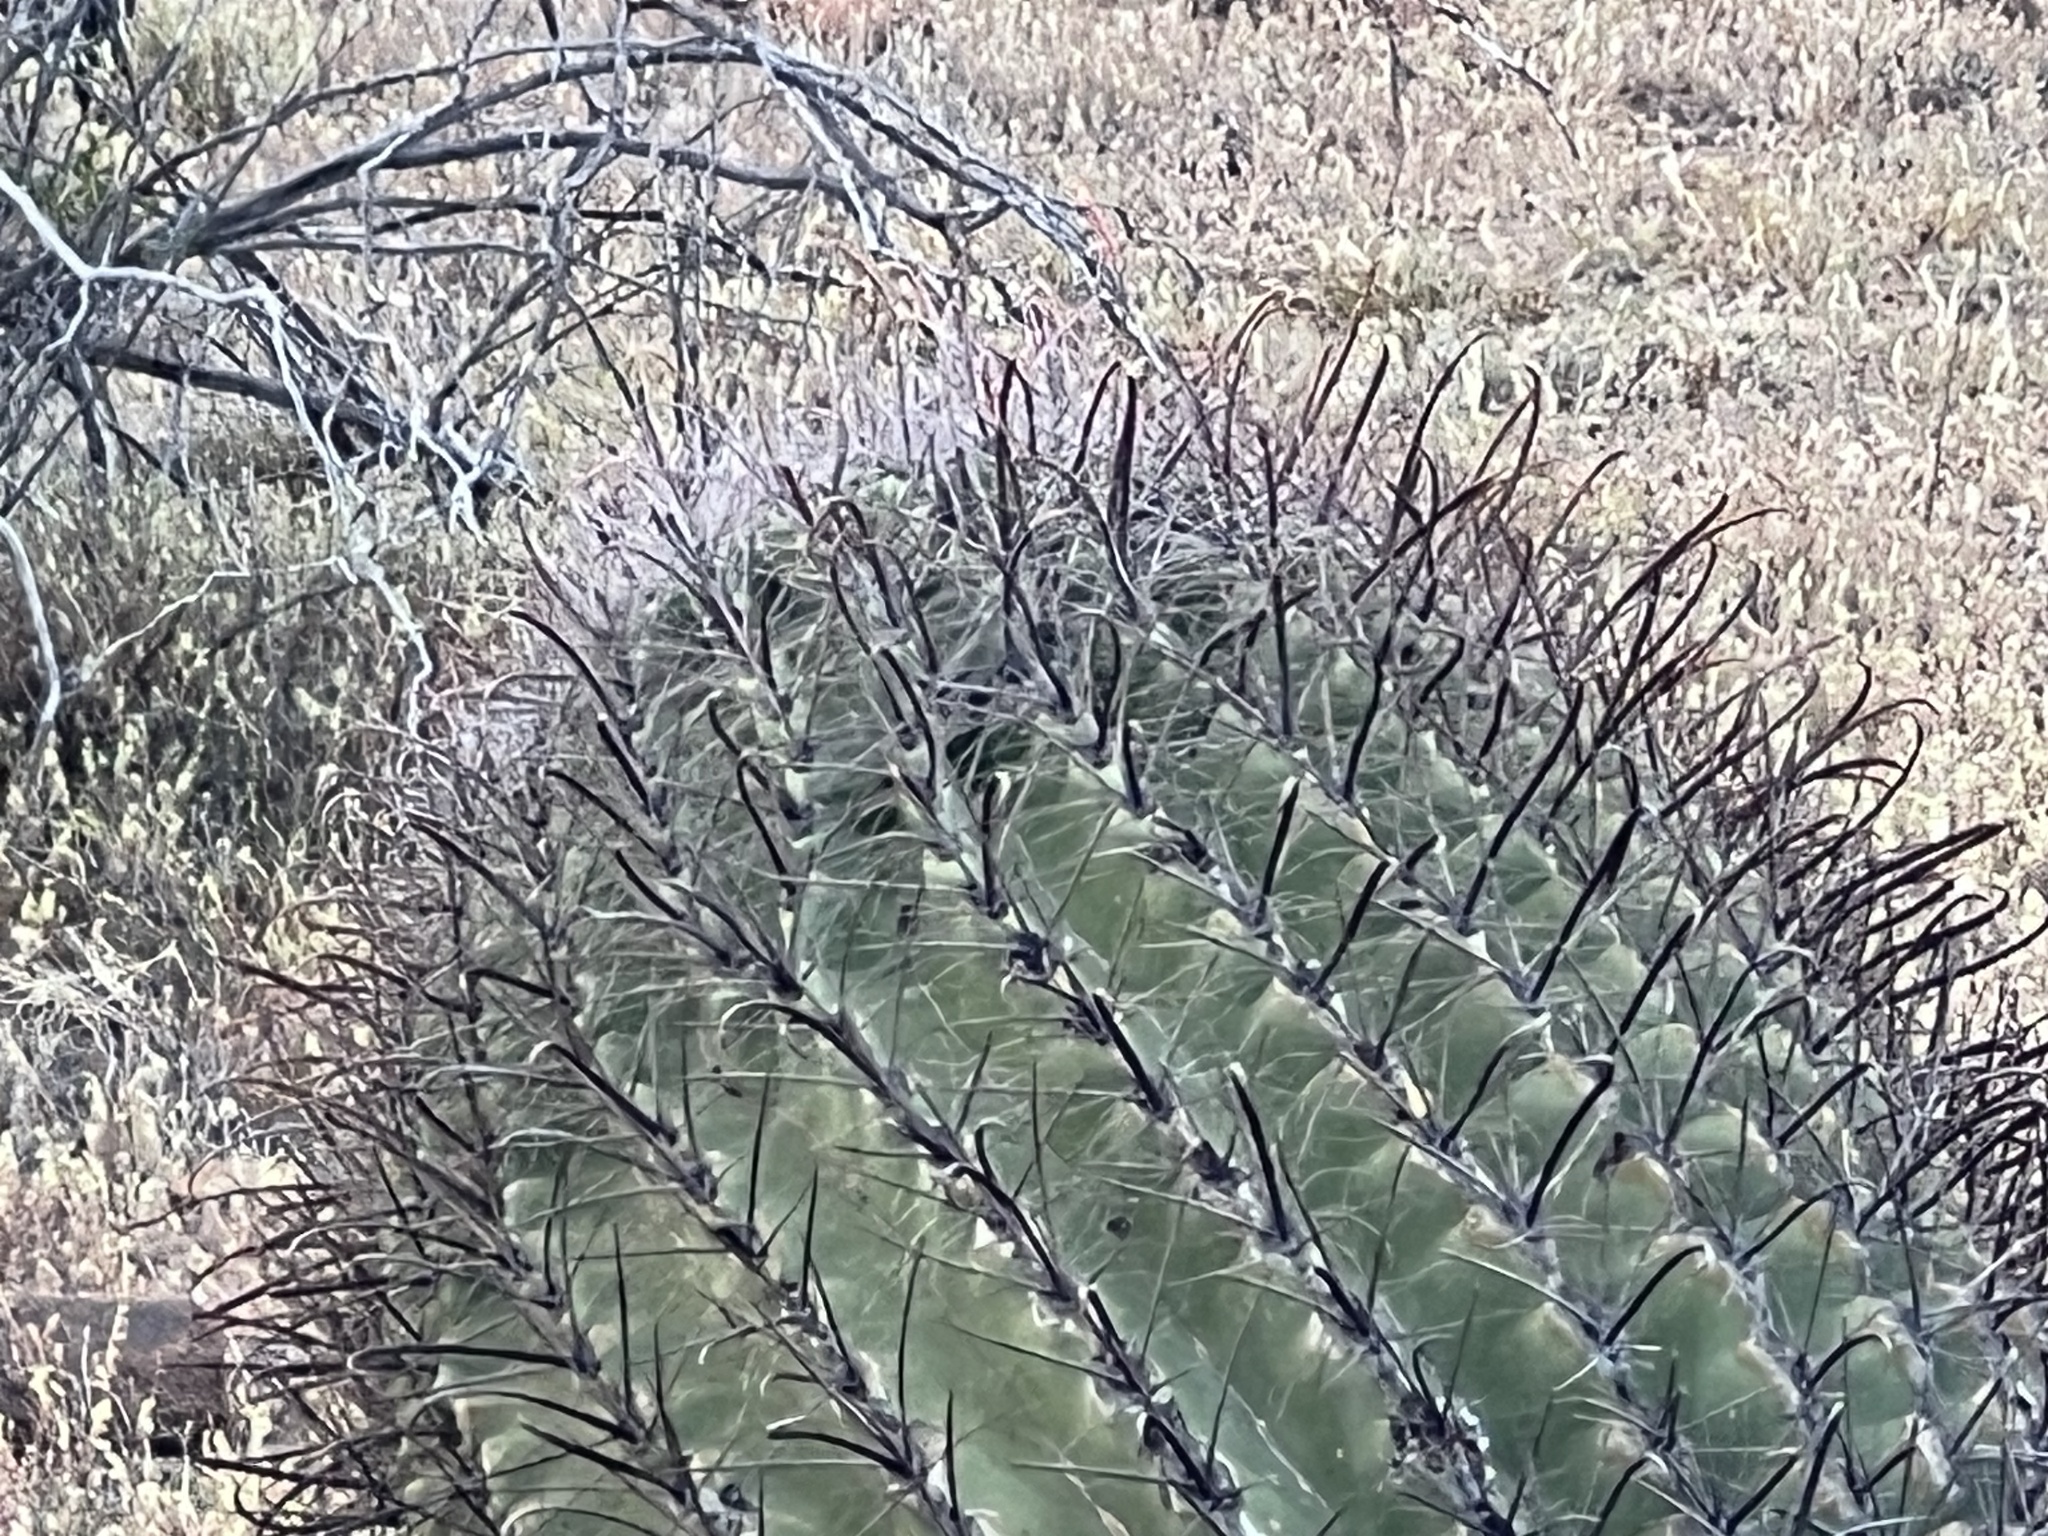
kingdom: Plantae
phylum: Tracheophyta
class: Magnoliopsida
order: Caryophyllales
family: Cactaceae
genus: Ferocactus
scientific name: Ferocactus wislizeni
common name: Candy barrel cactus
